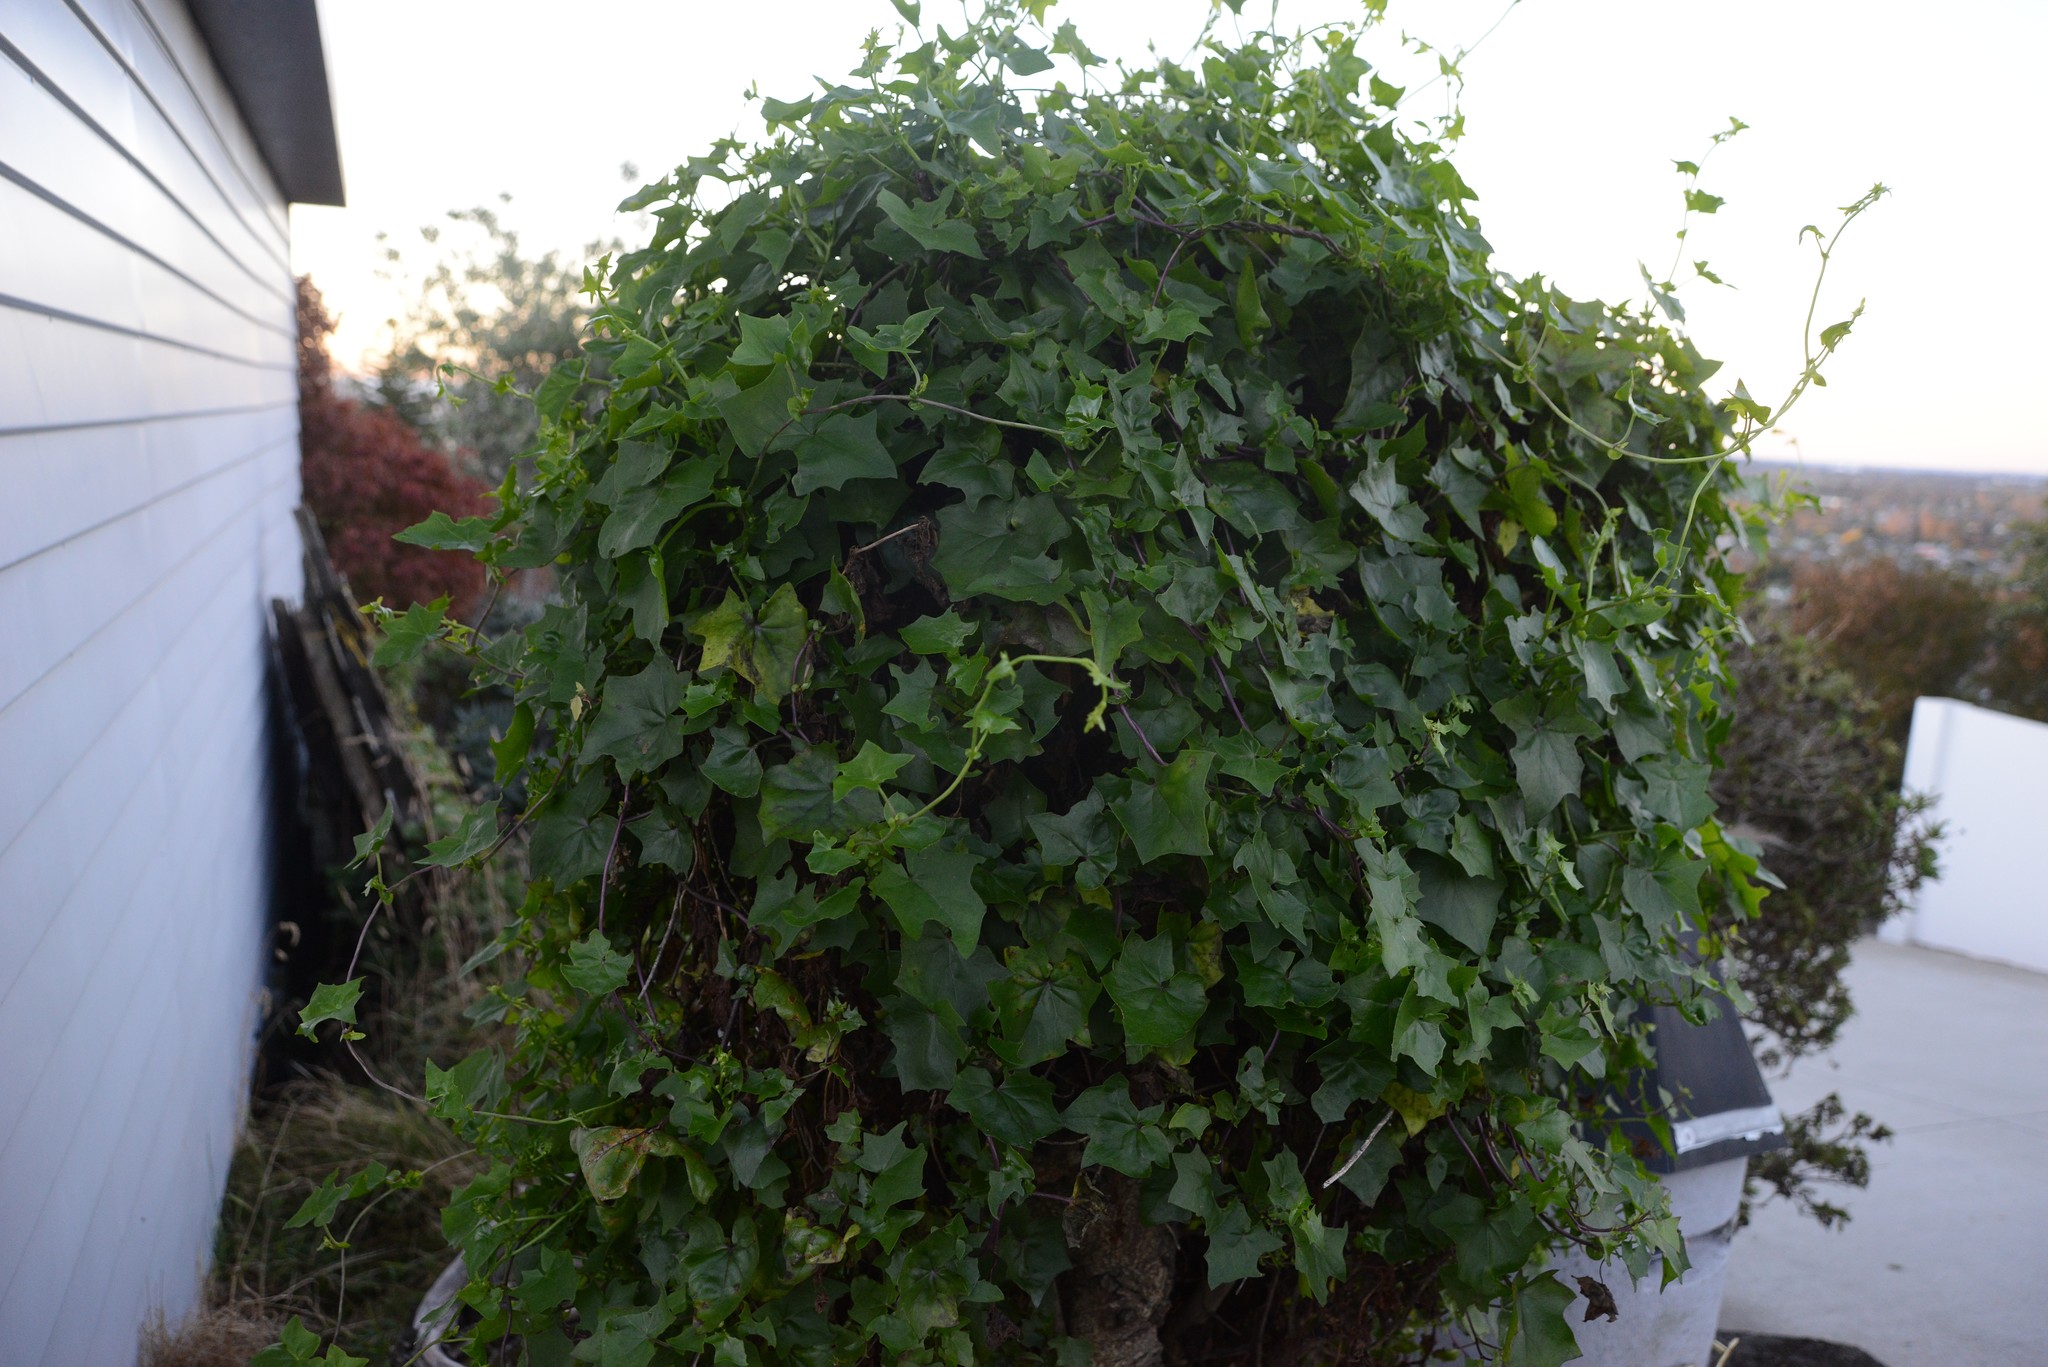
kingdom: Plantae
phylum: Tracheophyta
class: Magnoliopsida
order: Asterales
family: Asteraceae
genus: Delairea
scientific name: Delairea odorata
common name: Cape-ivy
